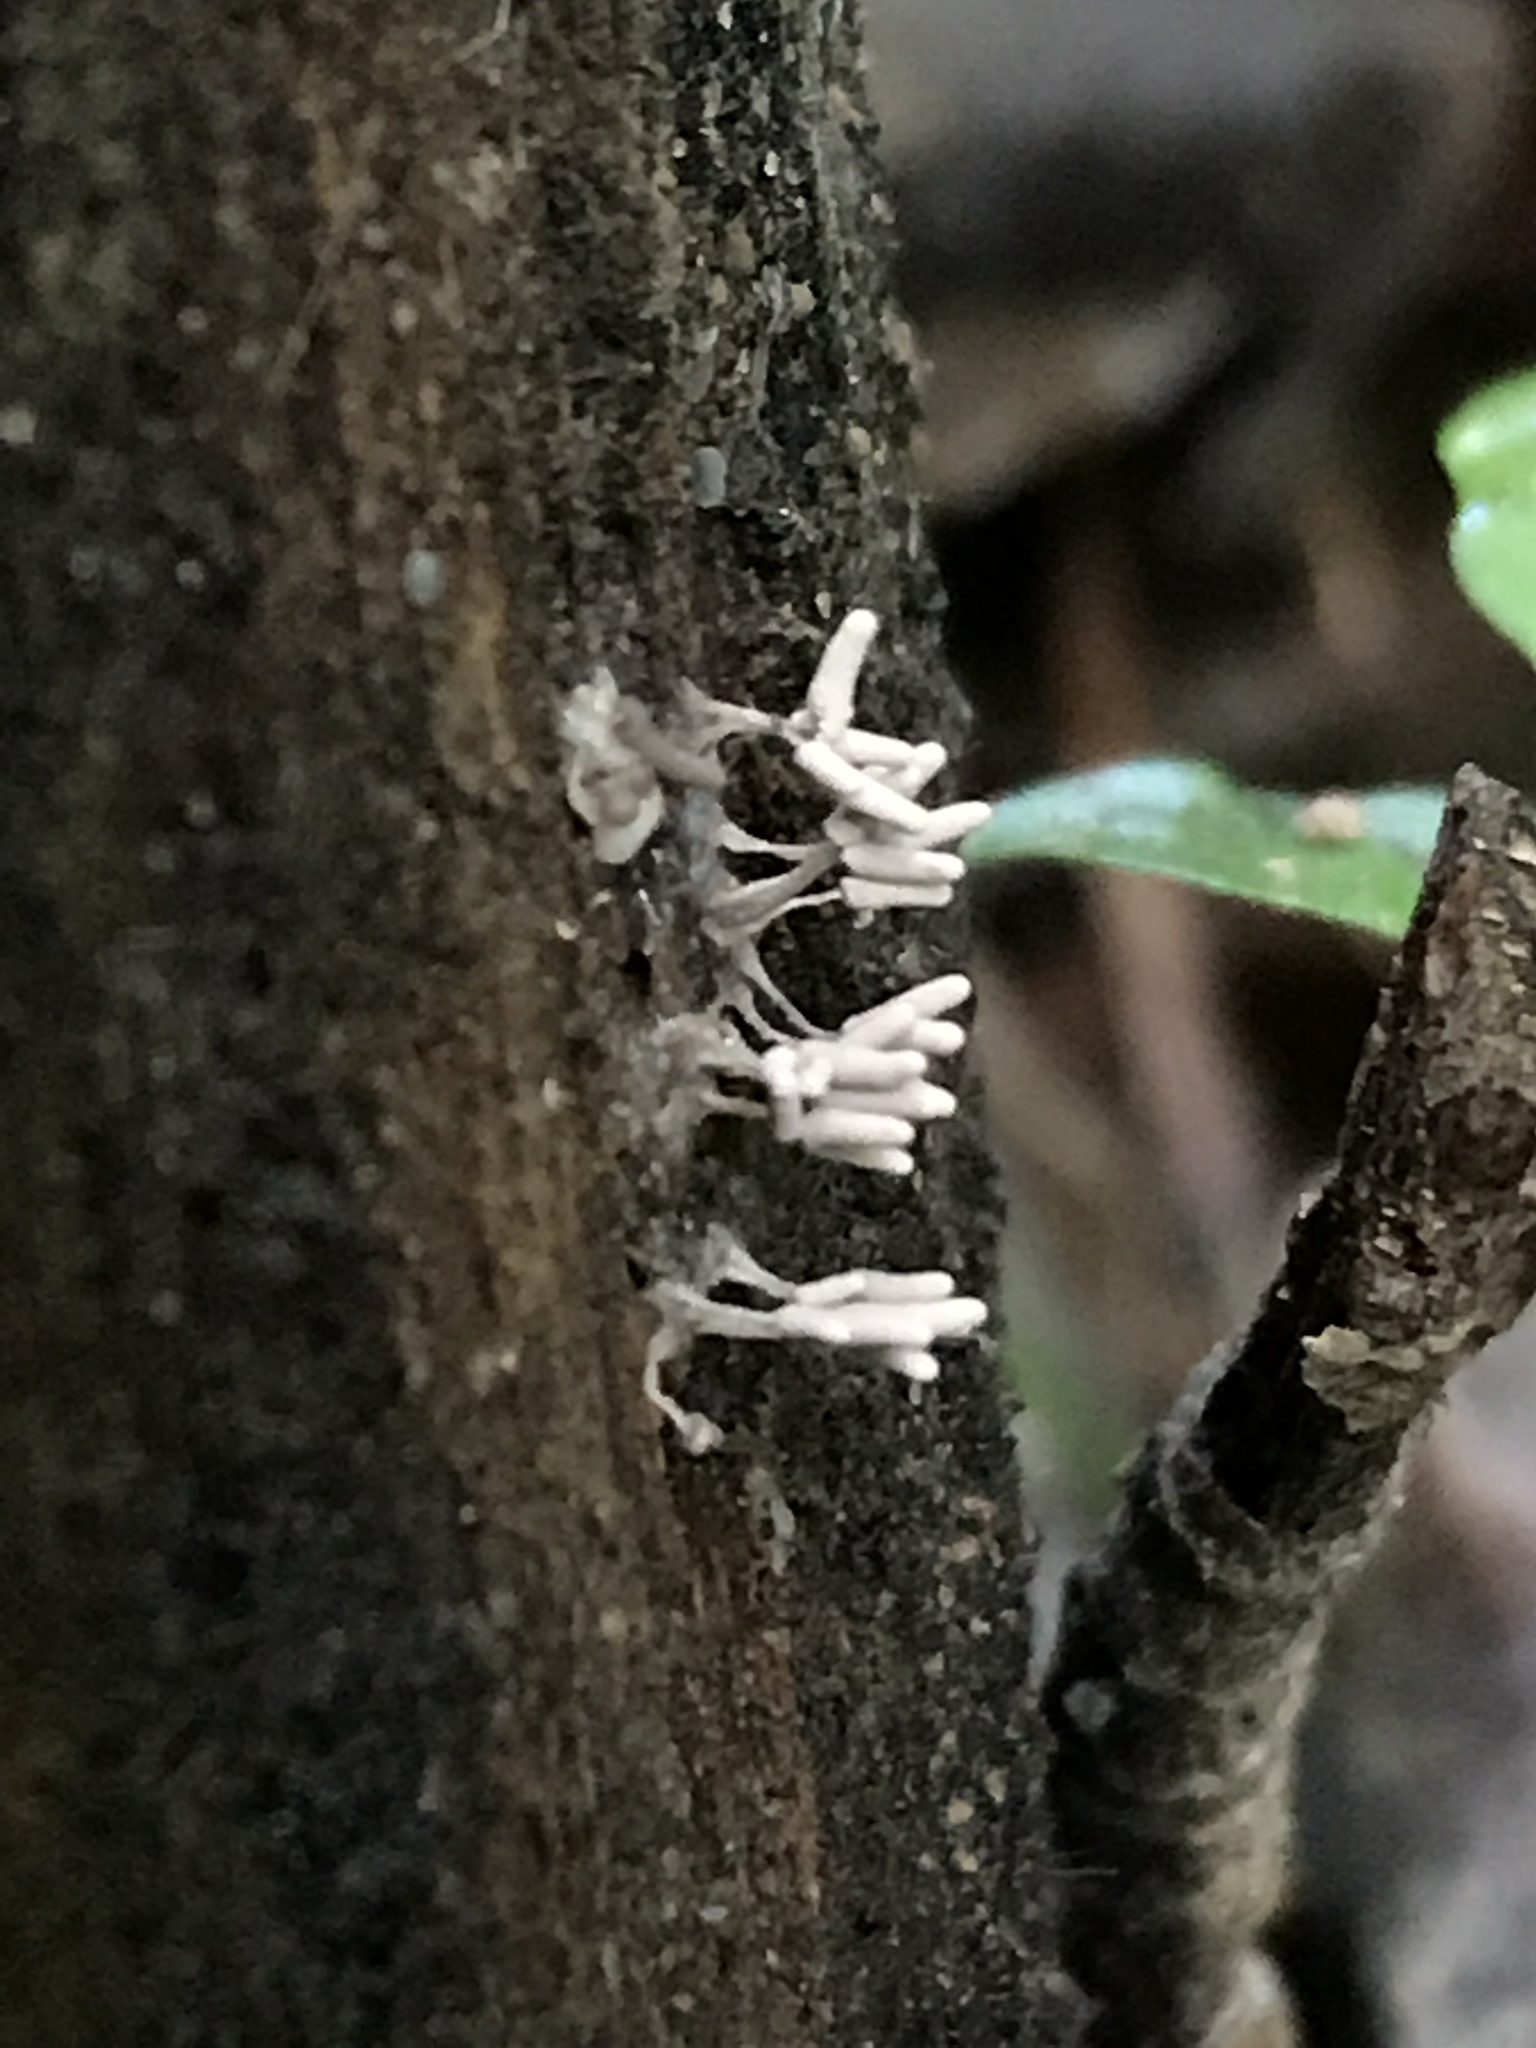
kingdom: Protozoa
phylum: Mycetozoa
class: Myxomycetes
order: Trichiales
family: Arcyriaceae
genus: Arcyria
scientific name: Arcyria cinerea
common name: White carnival candy slime mold
